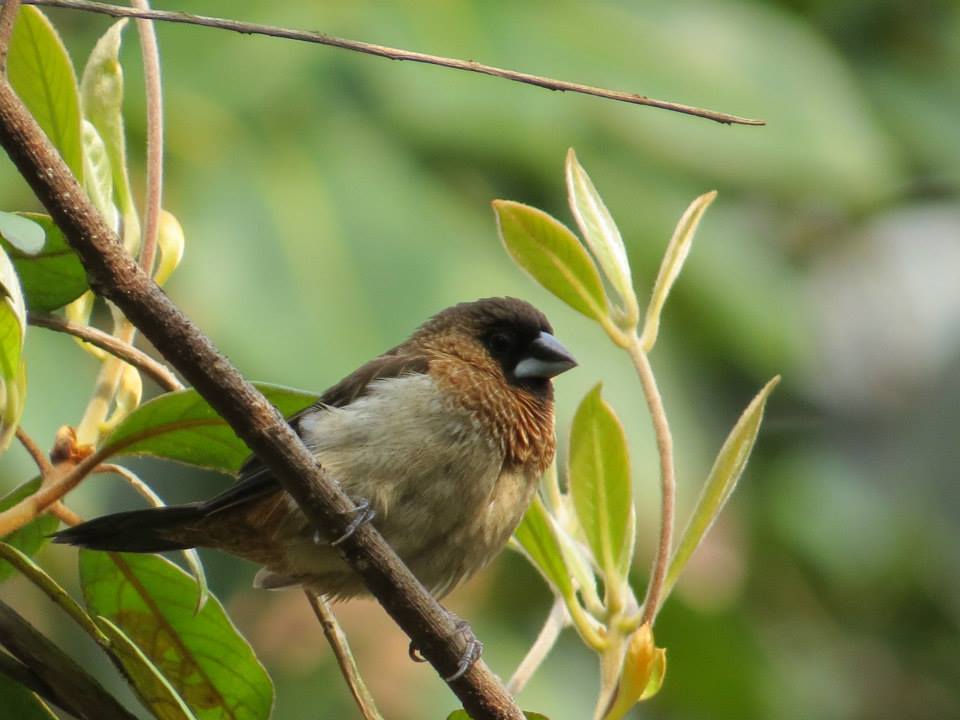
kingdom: Animalia
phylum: Chordata
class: Aves
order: Passeriformes
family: Estrildidae
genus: Lonchura
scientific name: Lonchura striata
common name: White-rumped munia
